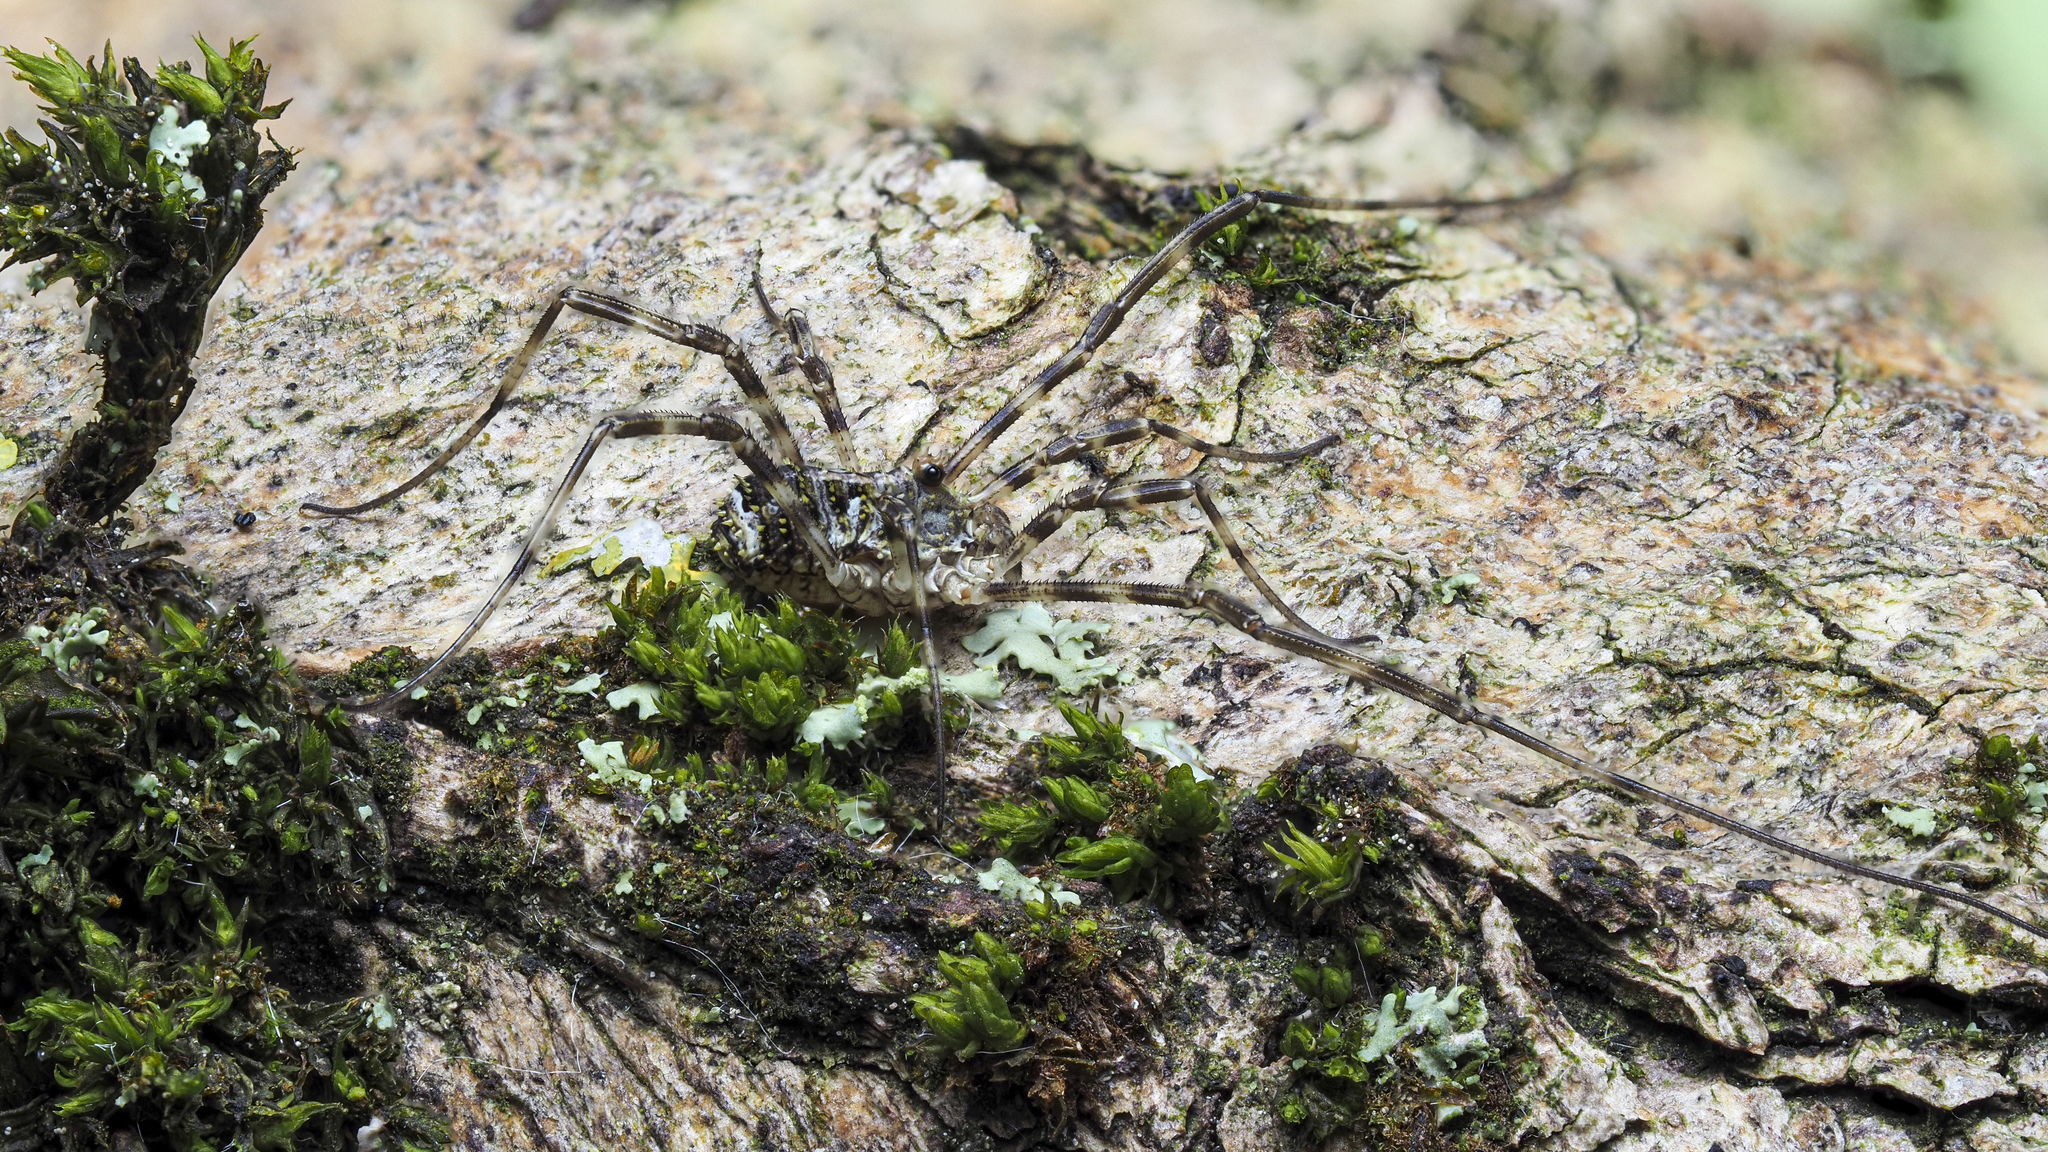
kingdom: Animalia
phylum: Arthropoda
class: Arachnida
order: Opiliones
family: Phalangiidae
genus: Lacinius
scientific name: Lacinius dentiger
